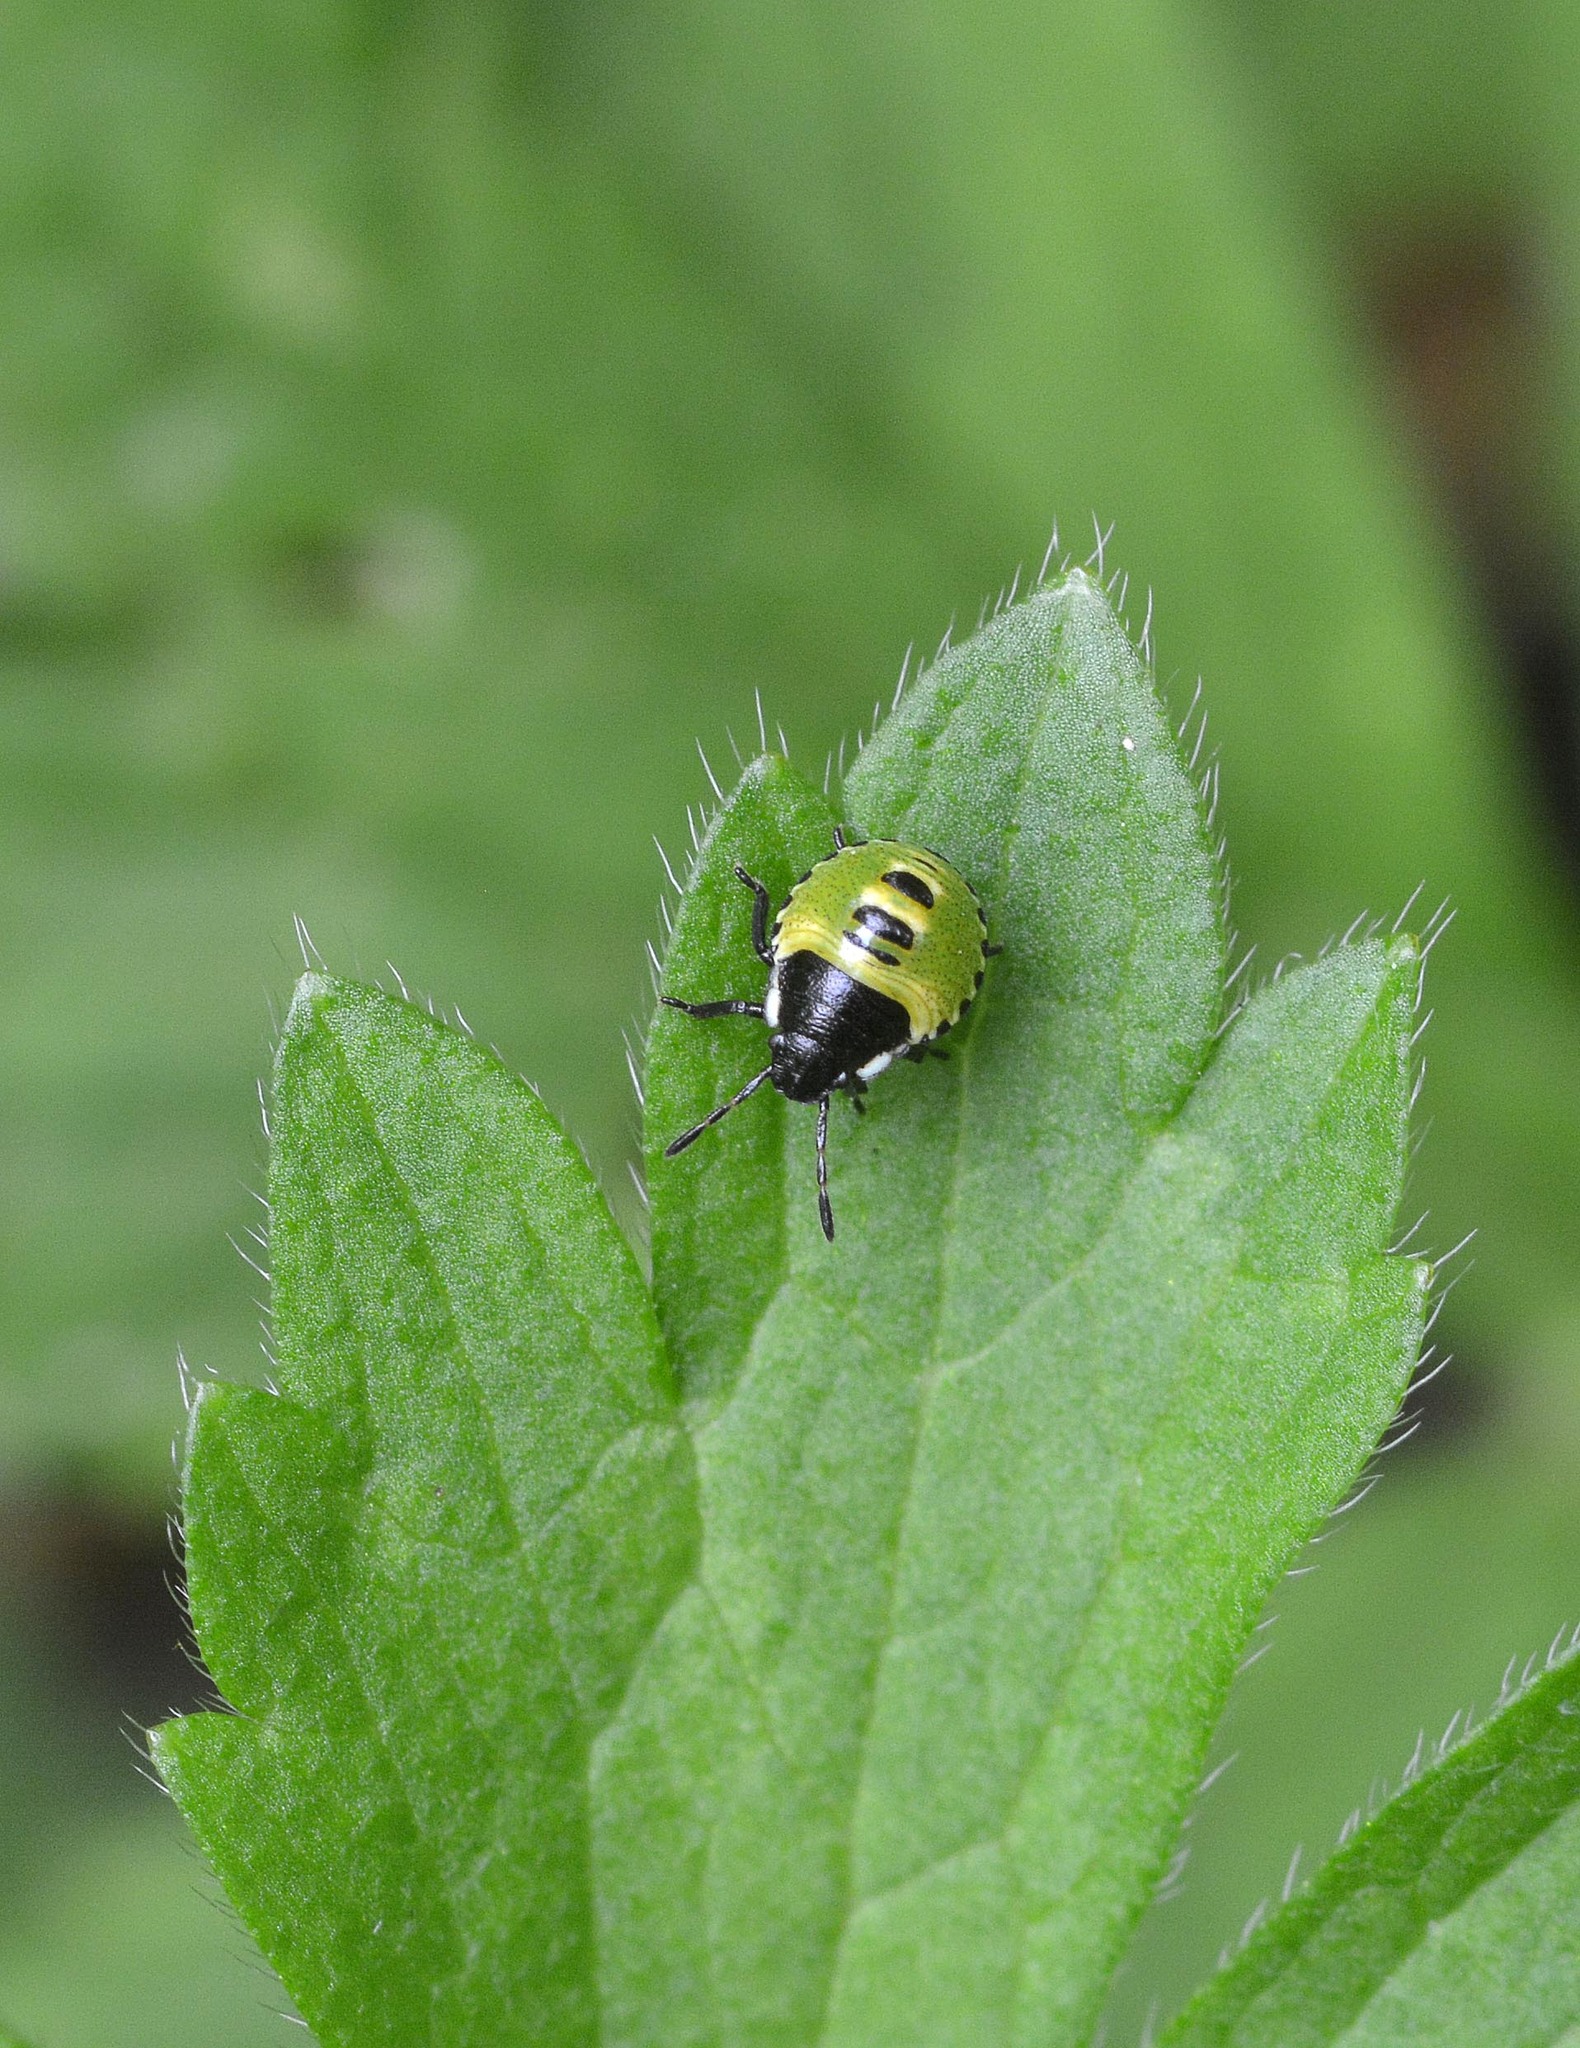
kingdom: Animalia
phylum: Arthropoda
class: Insecta
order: Hemiptera
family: Pentatomidae
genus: Palomena
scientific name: Palomena prasina
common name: Green shieldbug
